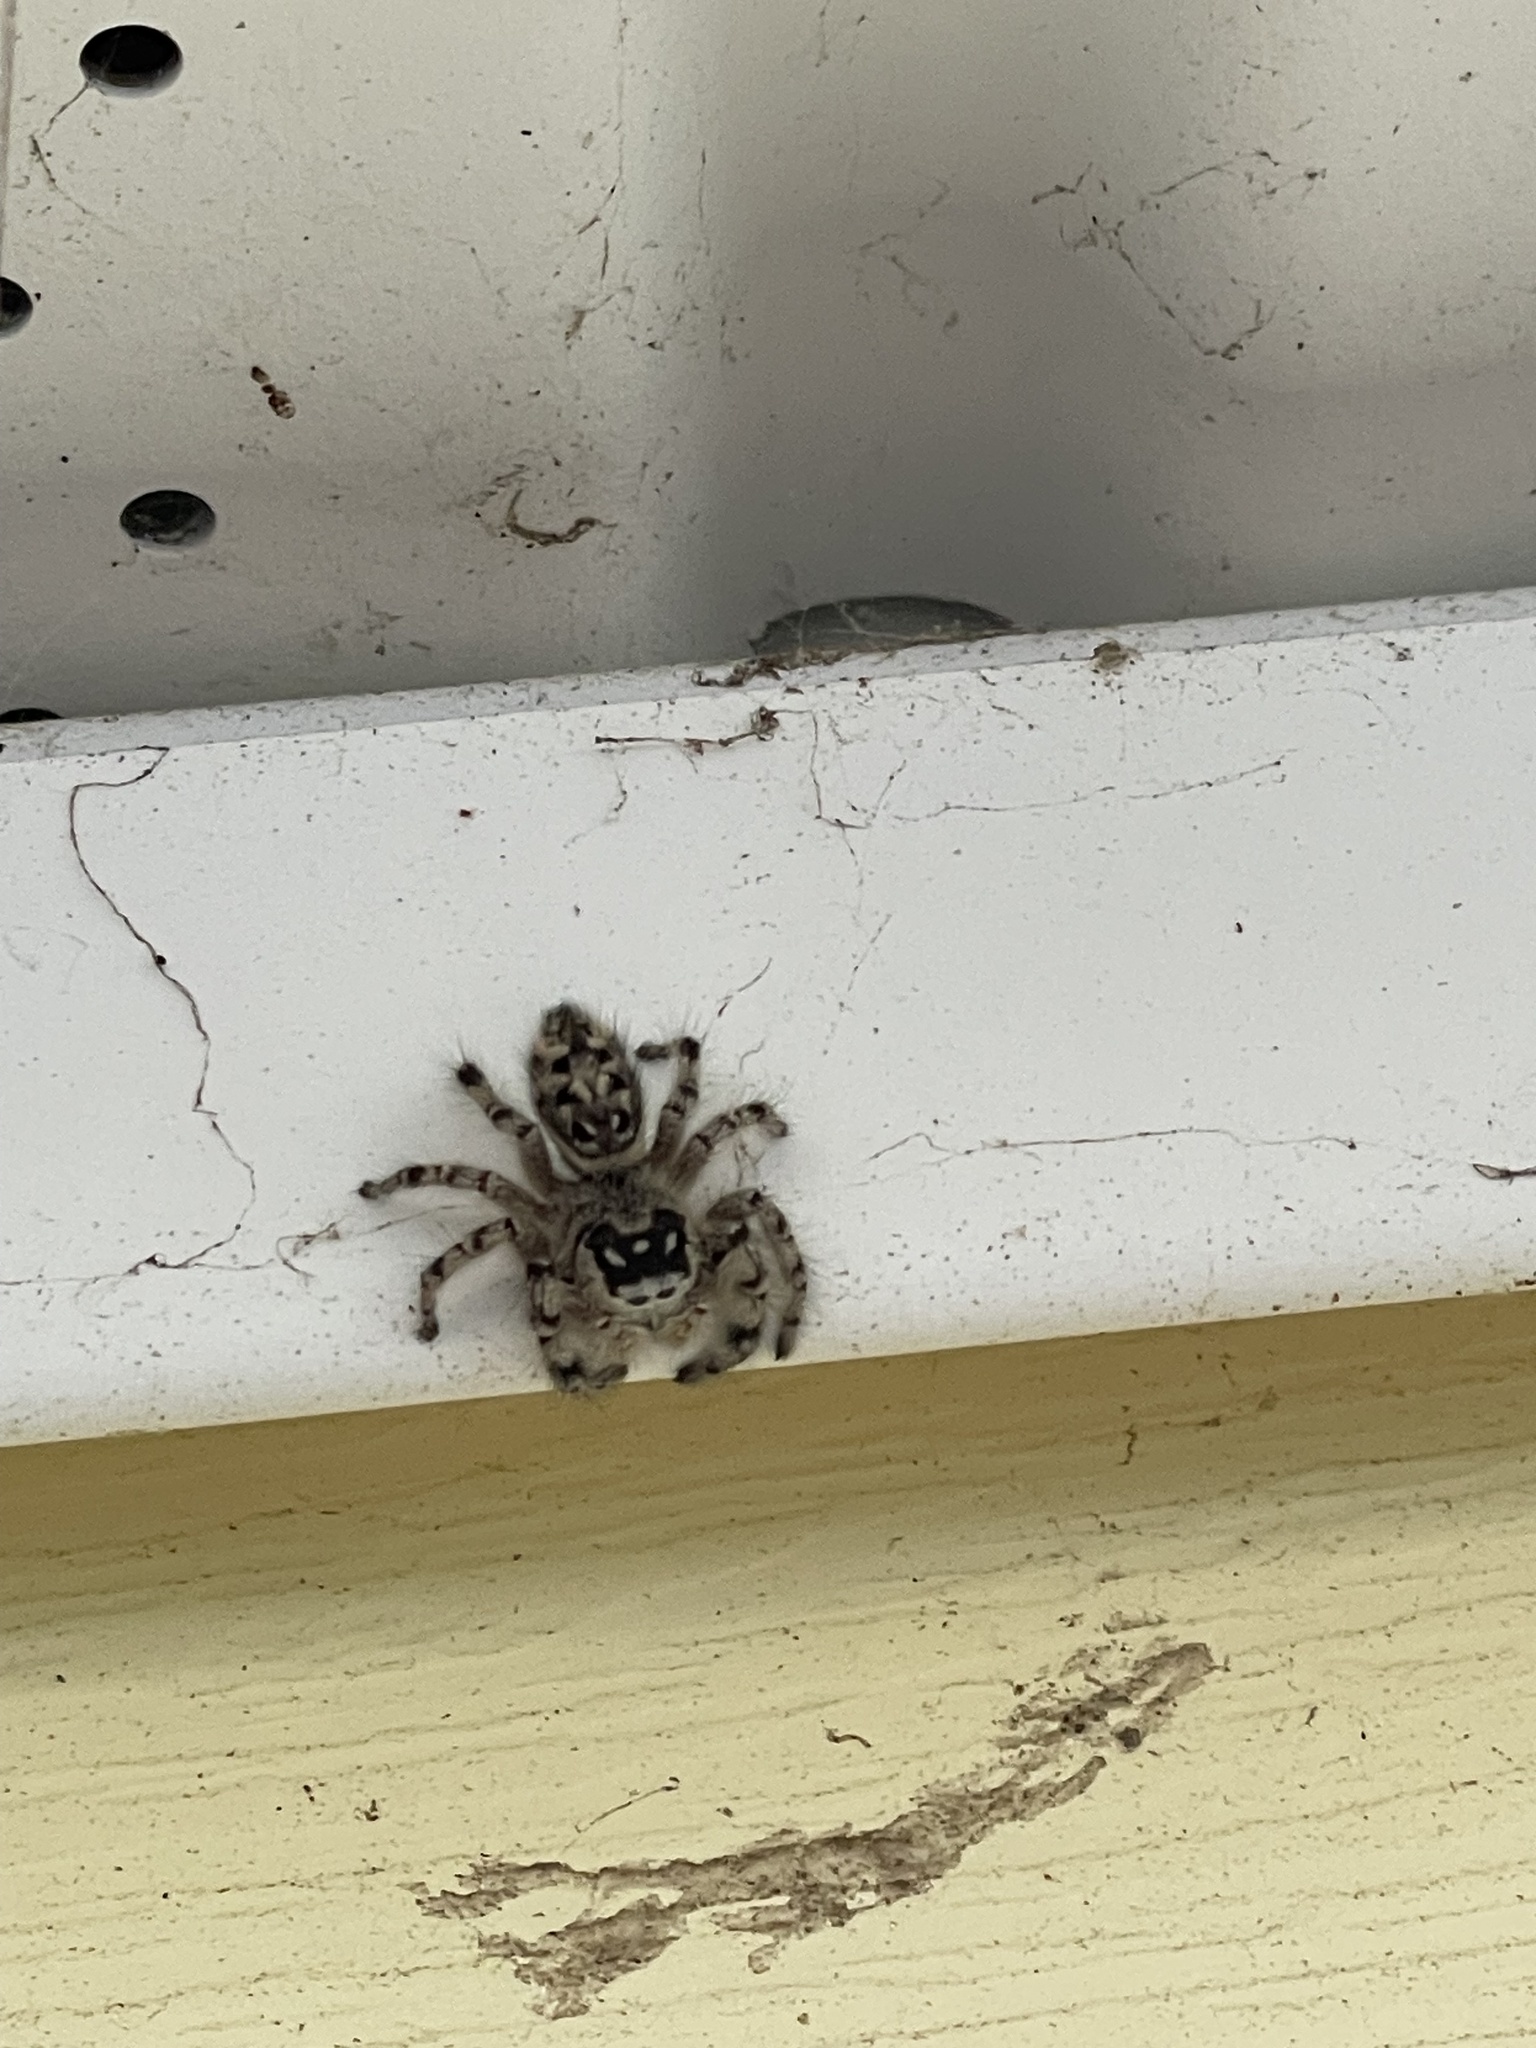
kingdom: Animalia
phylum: Arthropoda
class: Arachnida
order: Araneae
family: Salticidae
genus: Phidippus
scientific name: Phidippus otiosus
